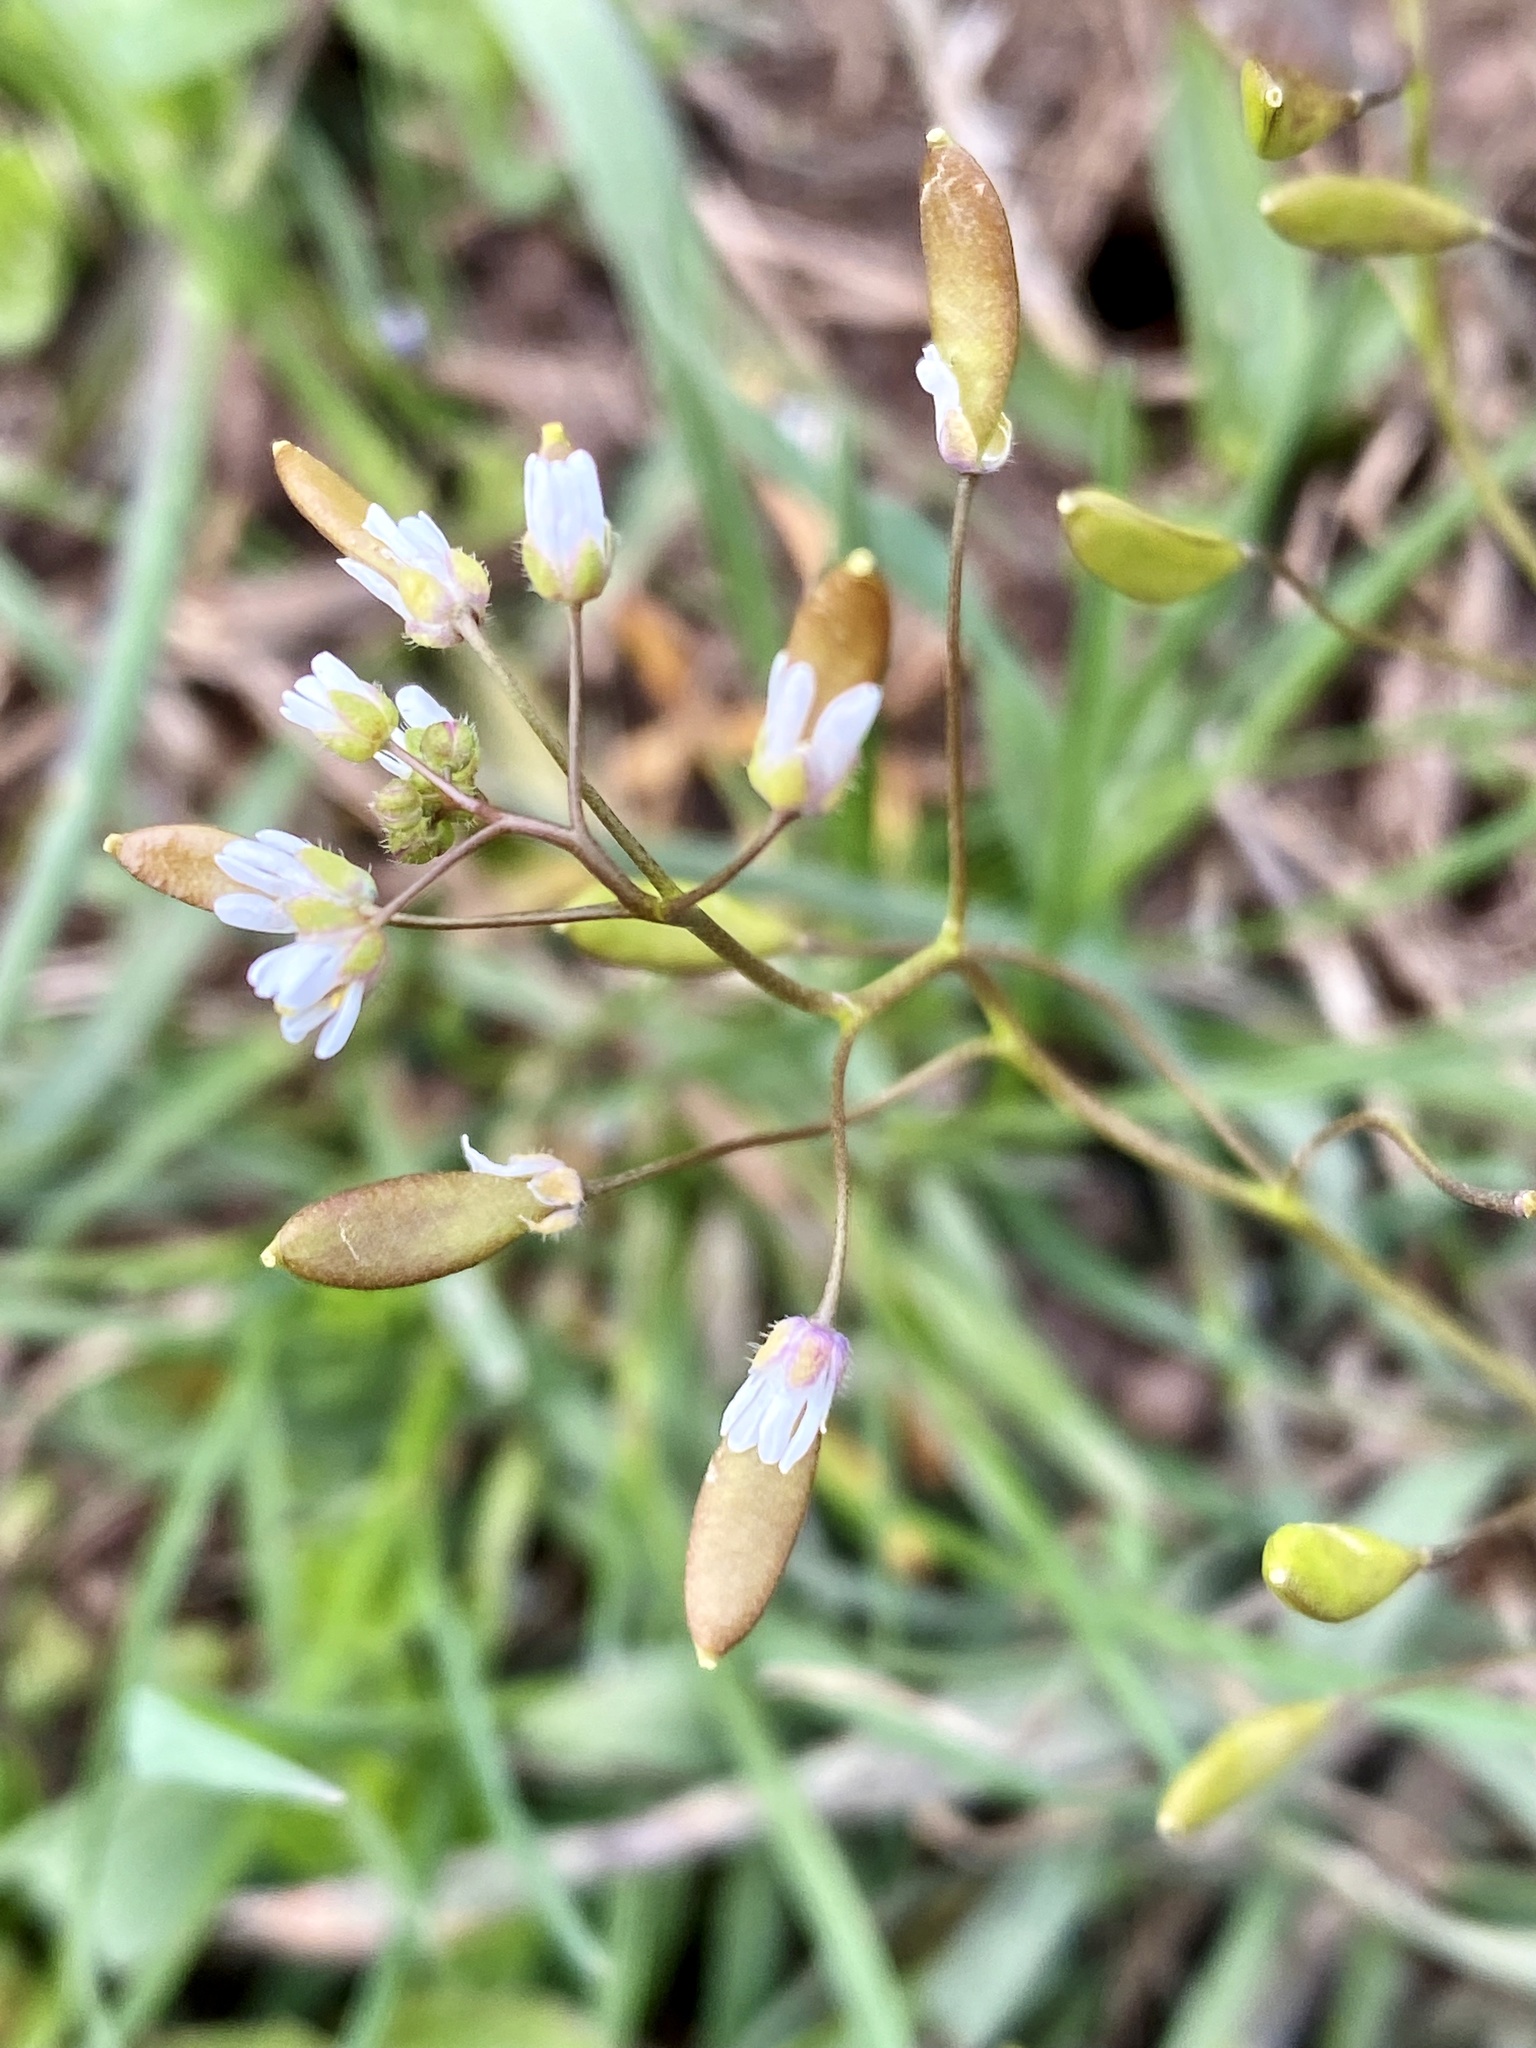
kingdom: Plantae
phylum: Tracheophyta
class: Magnoliopsida
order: Brassicales
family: Brassicaceae
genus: Draba
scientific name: Draba verna
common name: Spring draba
